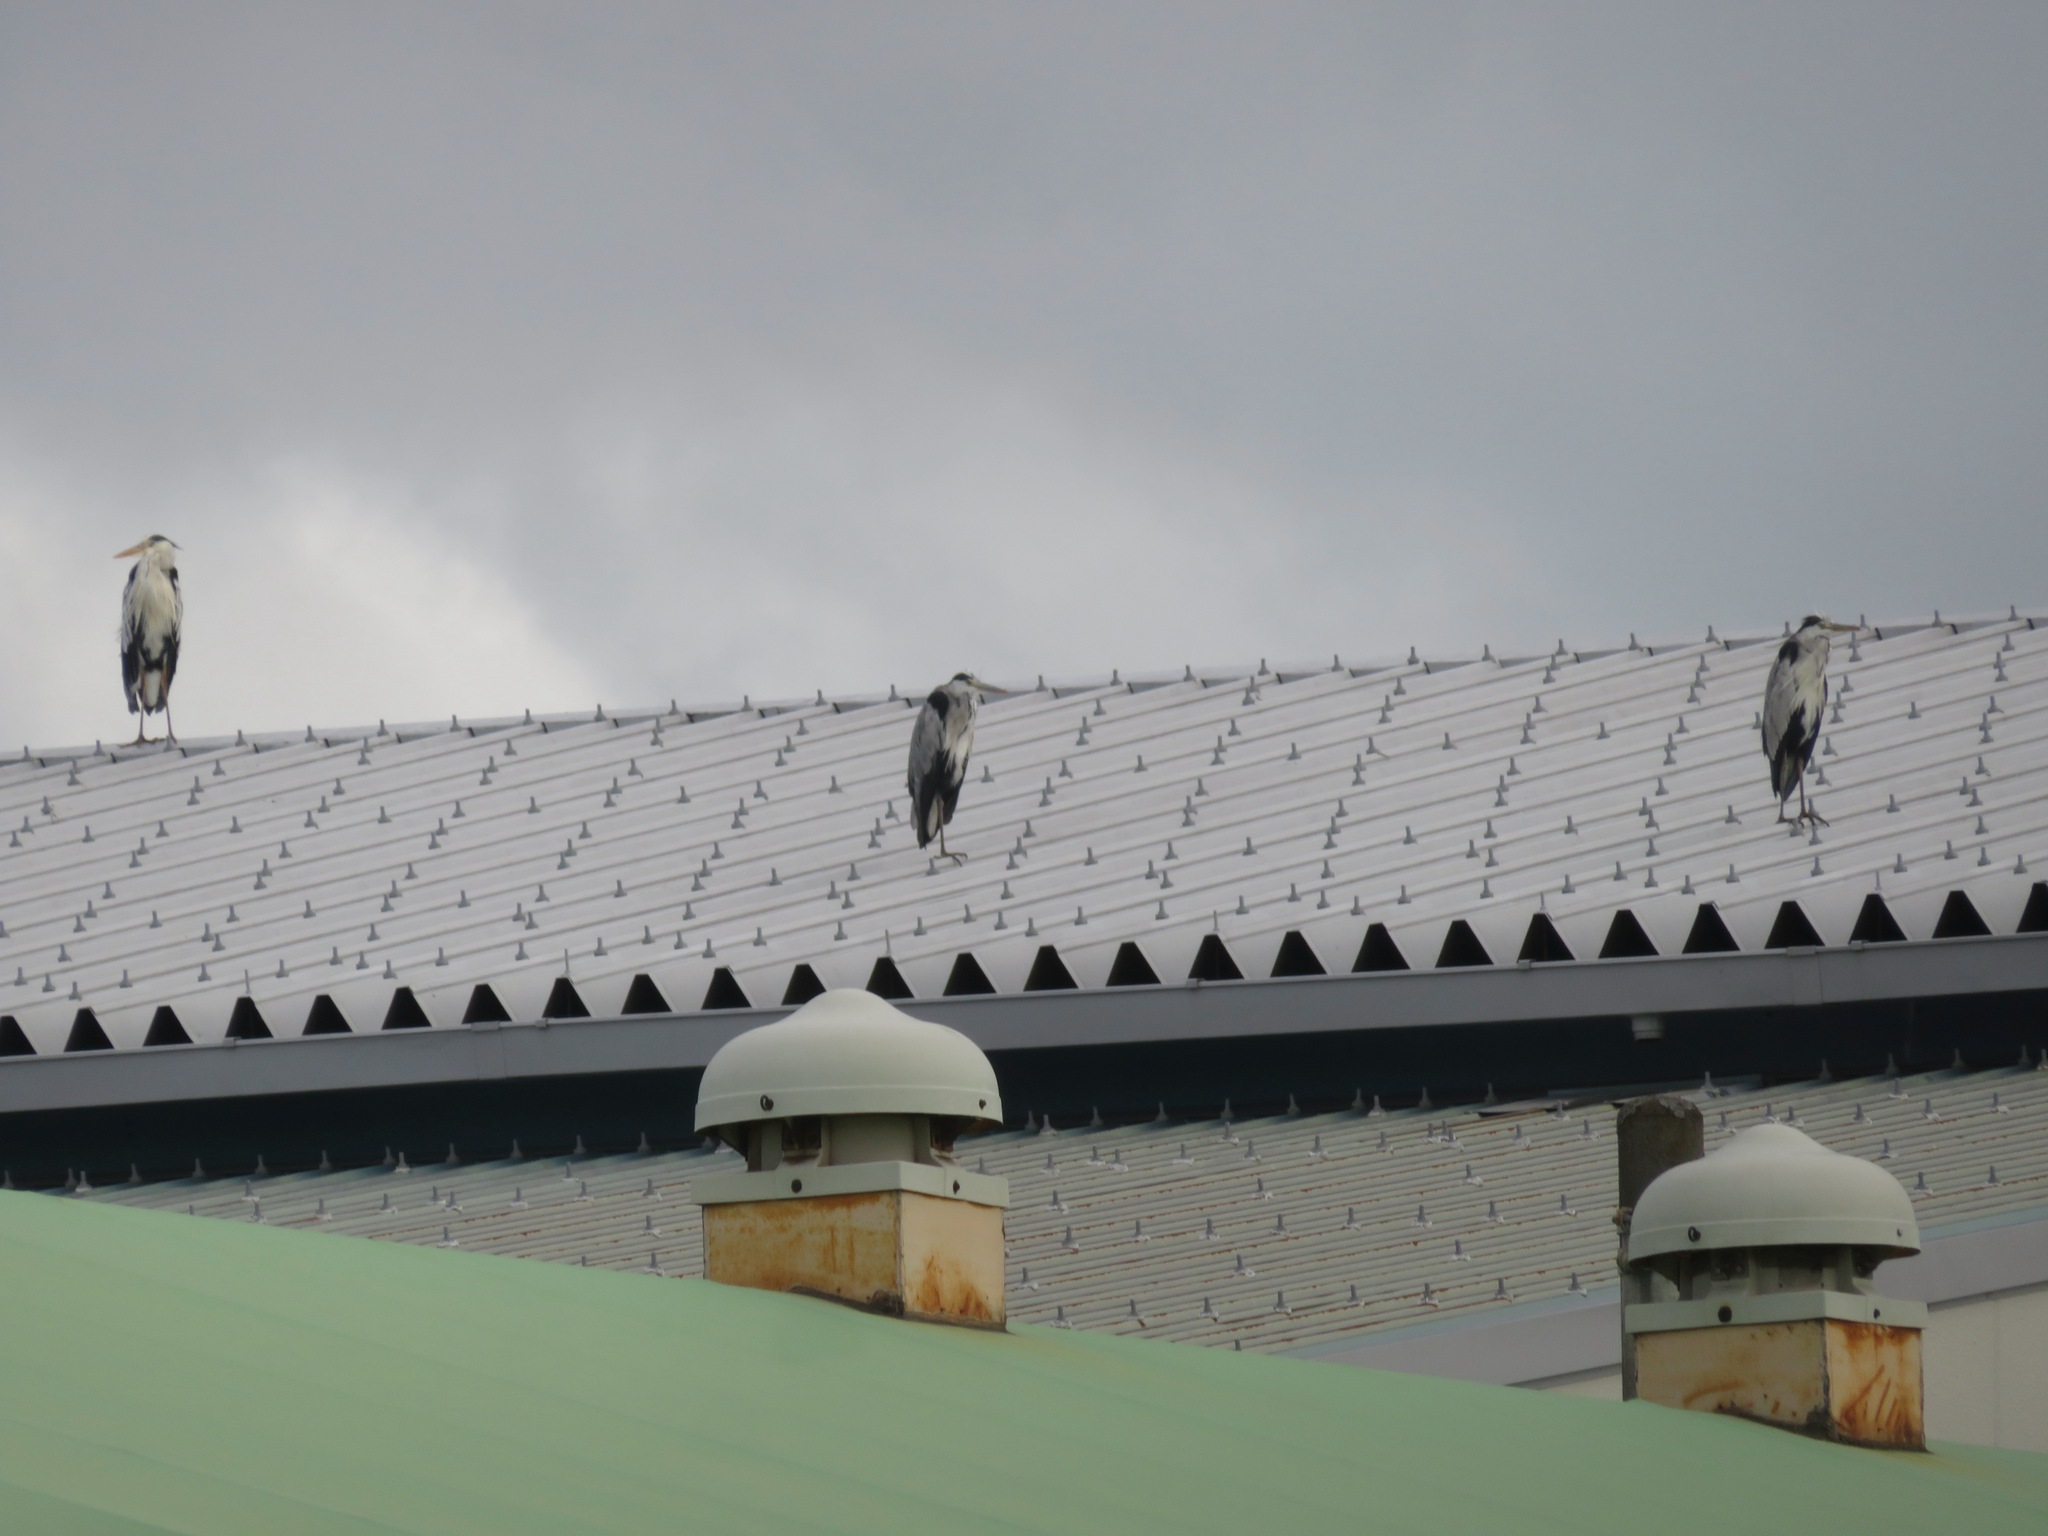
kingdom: Animalia
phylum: Chordata
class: Aves
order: Pelecaniformes
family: Ardeidae
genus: Ardea
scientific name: Ardea cinerea
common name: Grey heron
